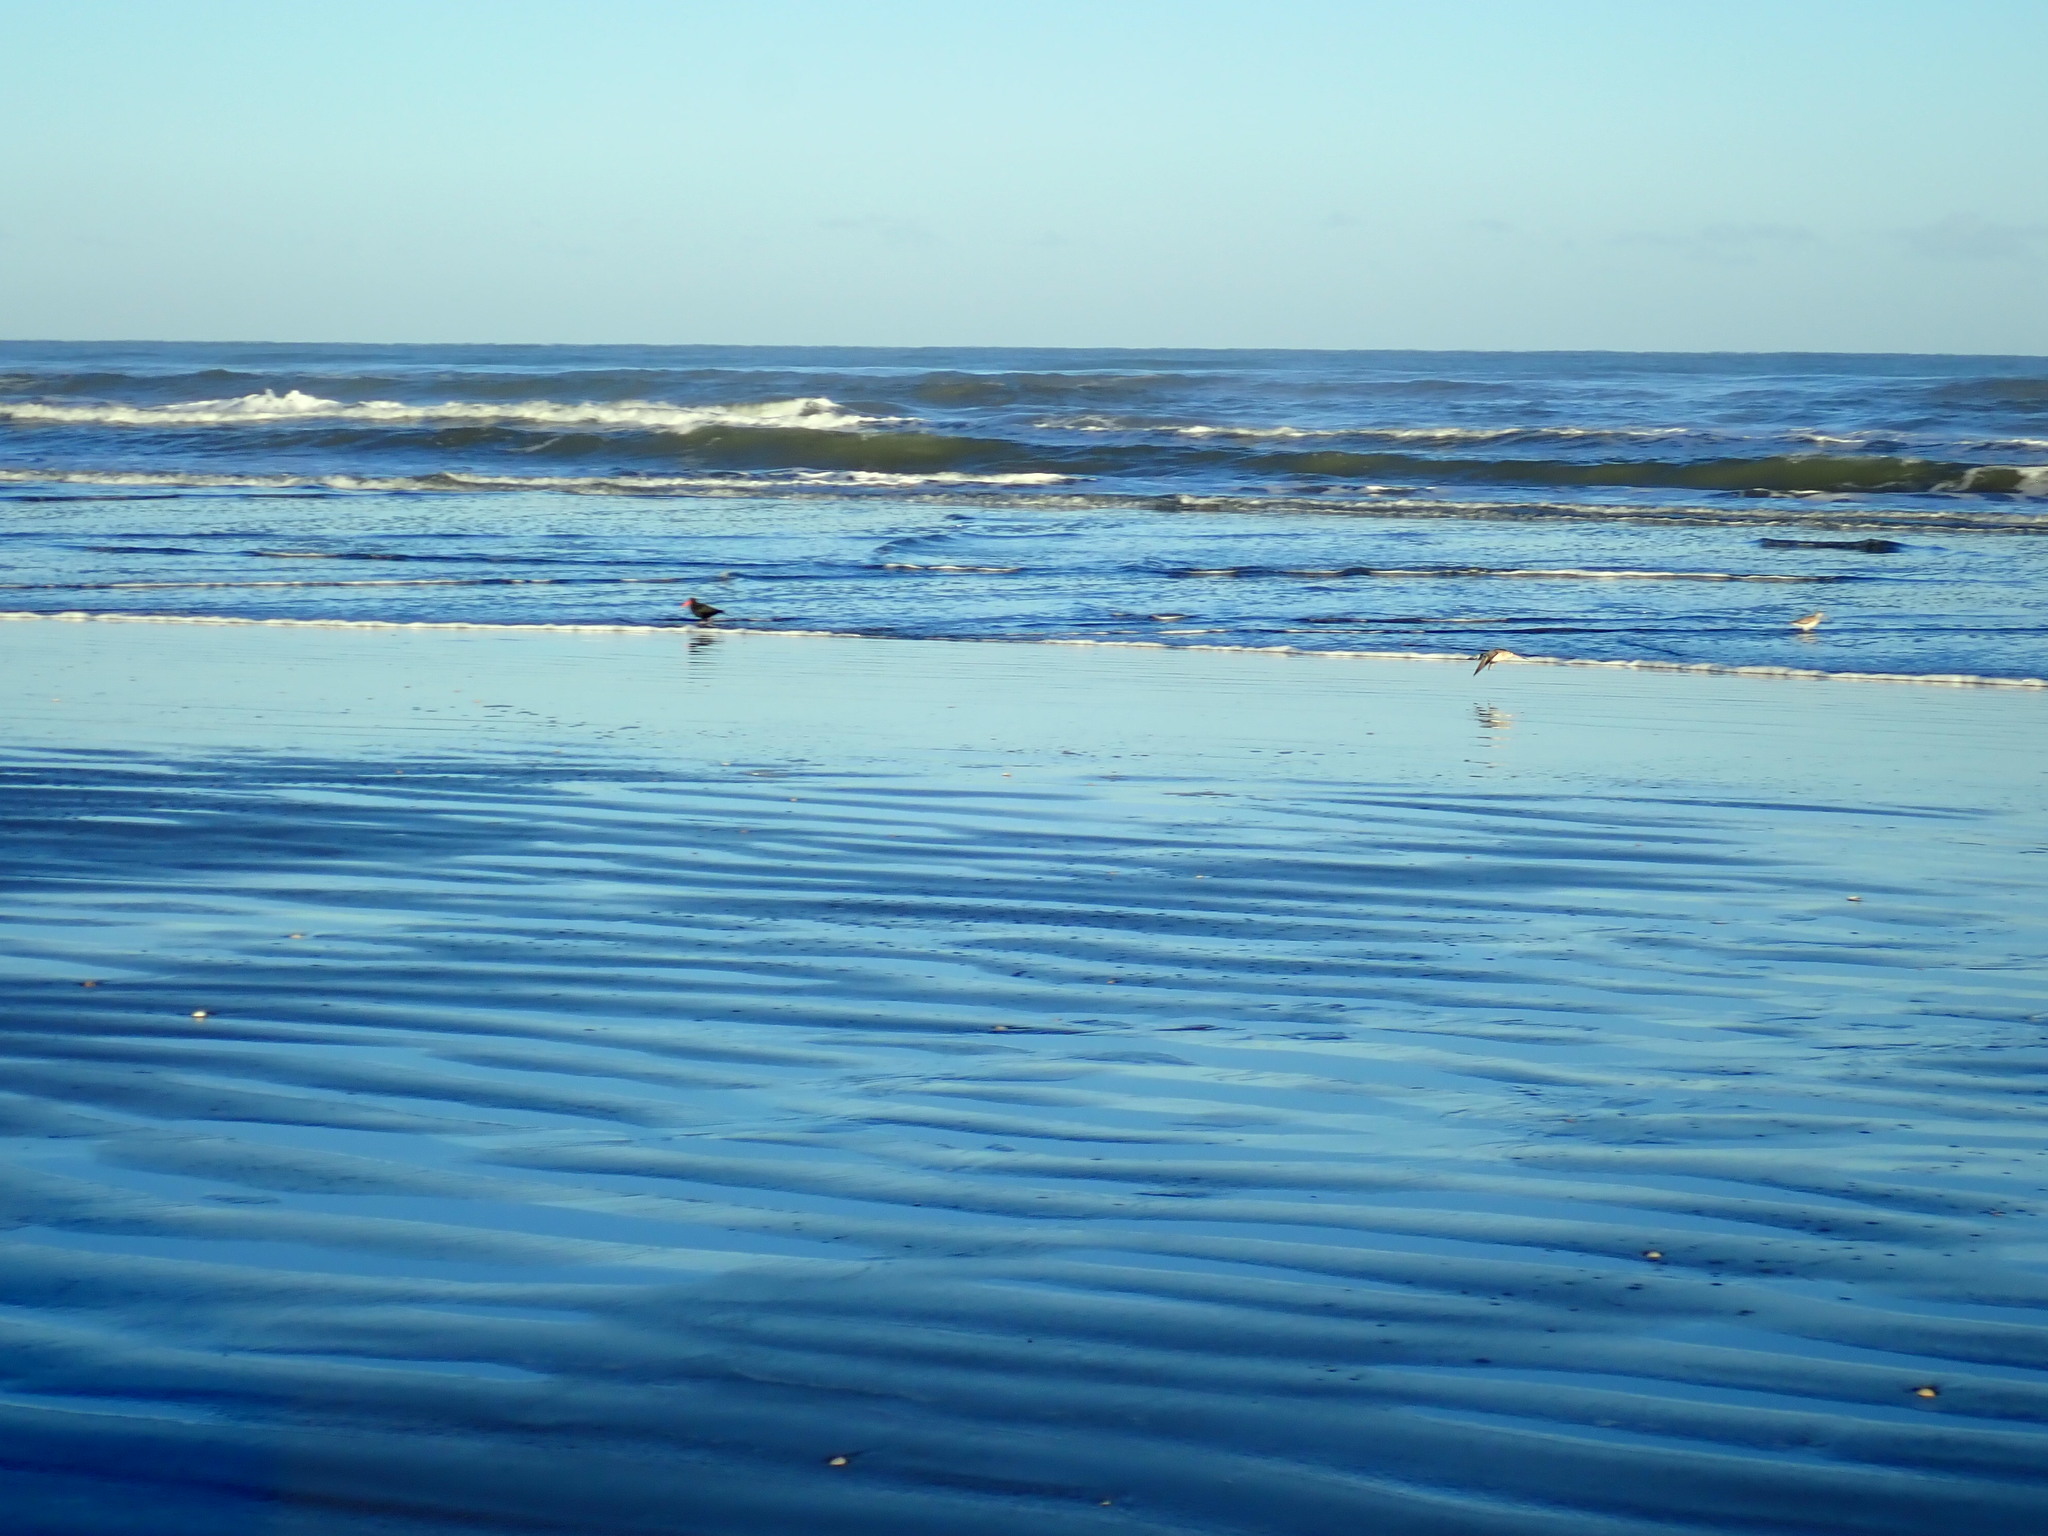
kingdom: Animalia
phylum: Chordata
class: Aves
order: Charadriiformes
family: Scolopacidae
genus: Limosa
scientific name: Limosa lapponica
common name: Bar-tailed godwit
